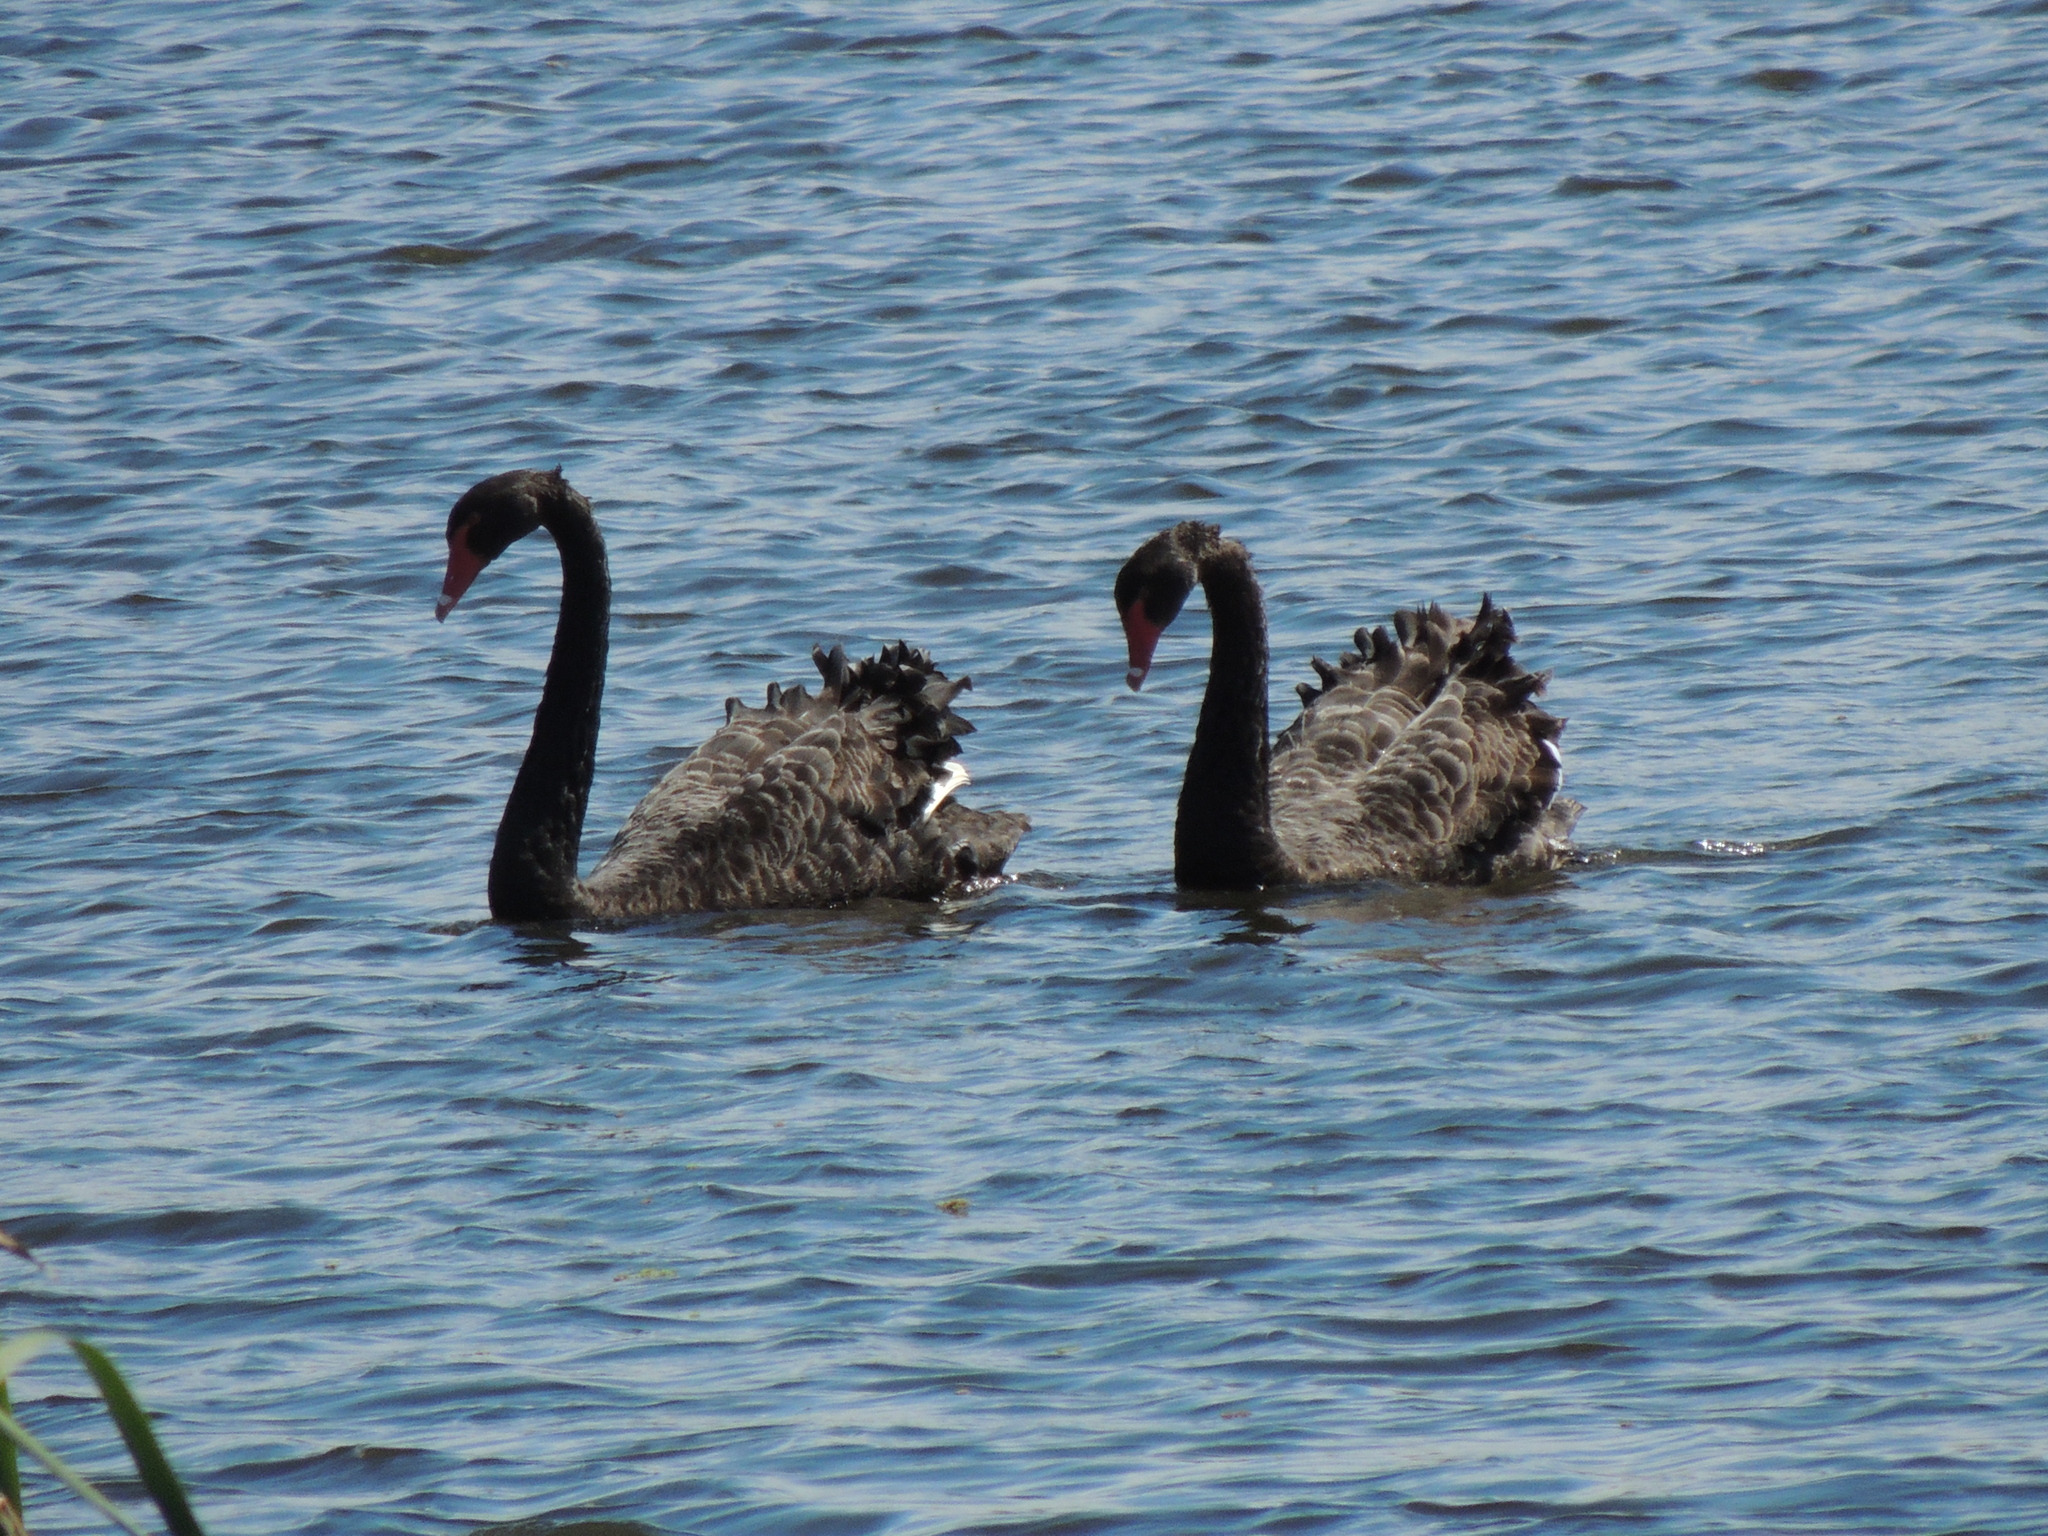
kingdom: Animalia
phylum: Chordata
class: Aves
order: Anseriformes
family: Anatidae
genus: Cygnus
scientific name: Cygnus atratus
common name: Black swan
